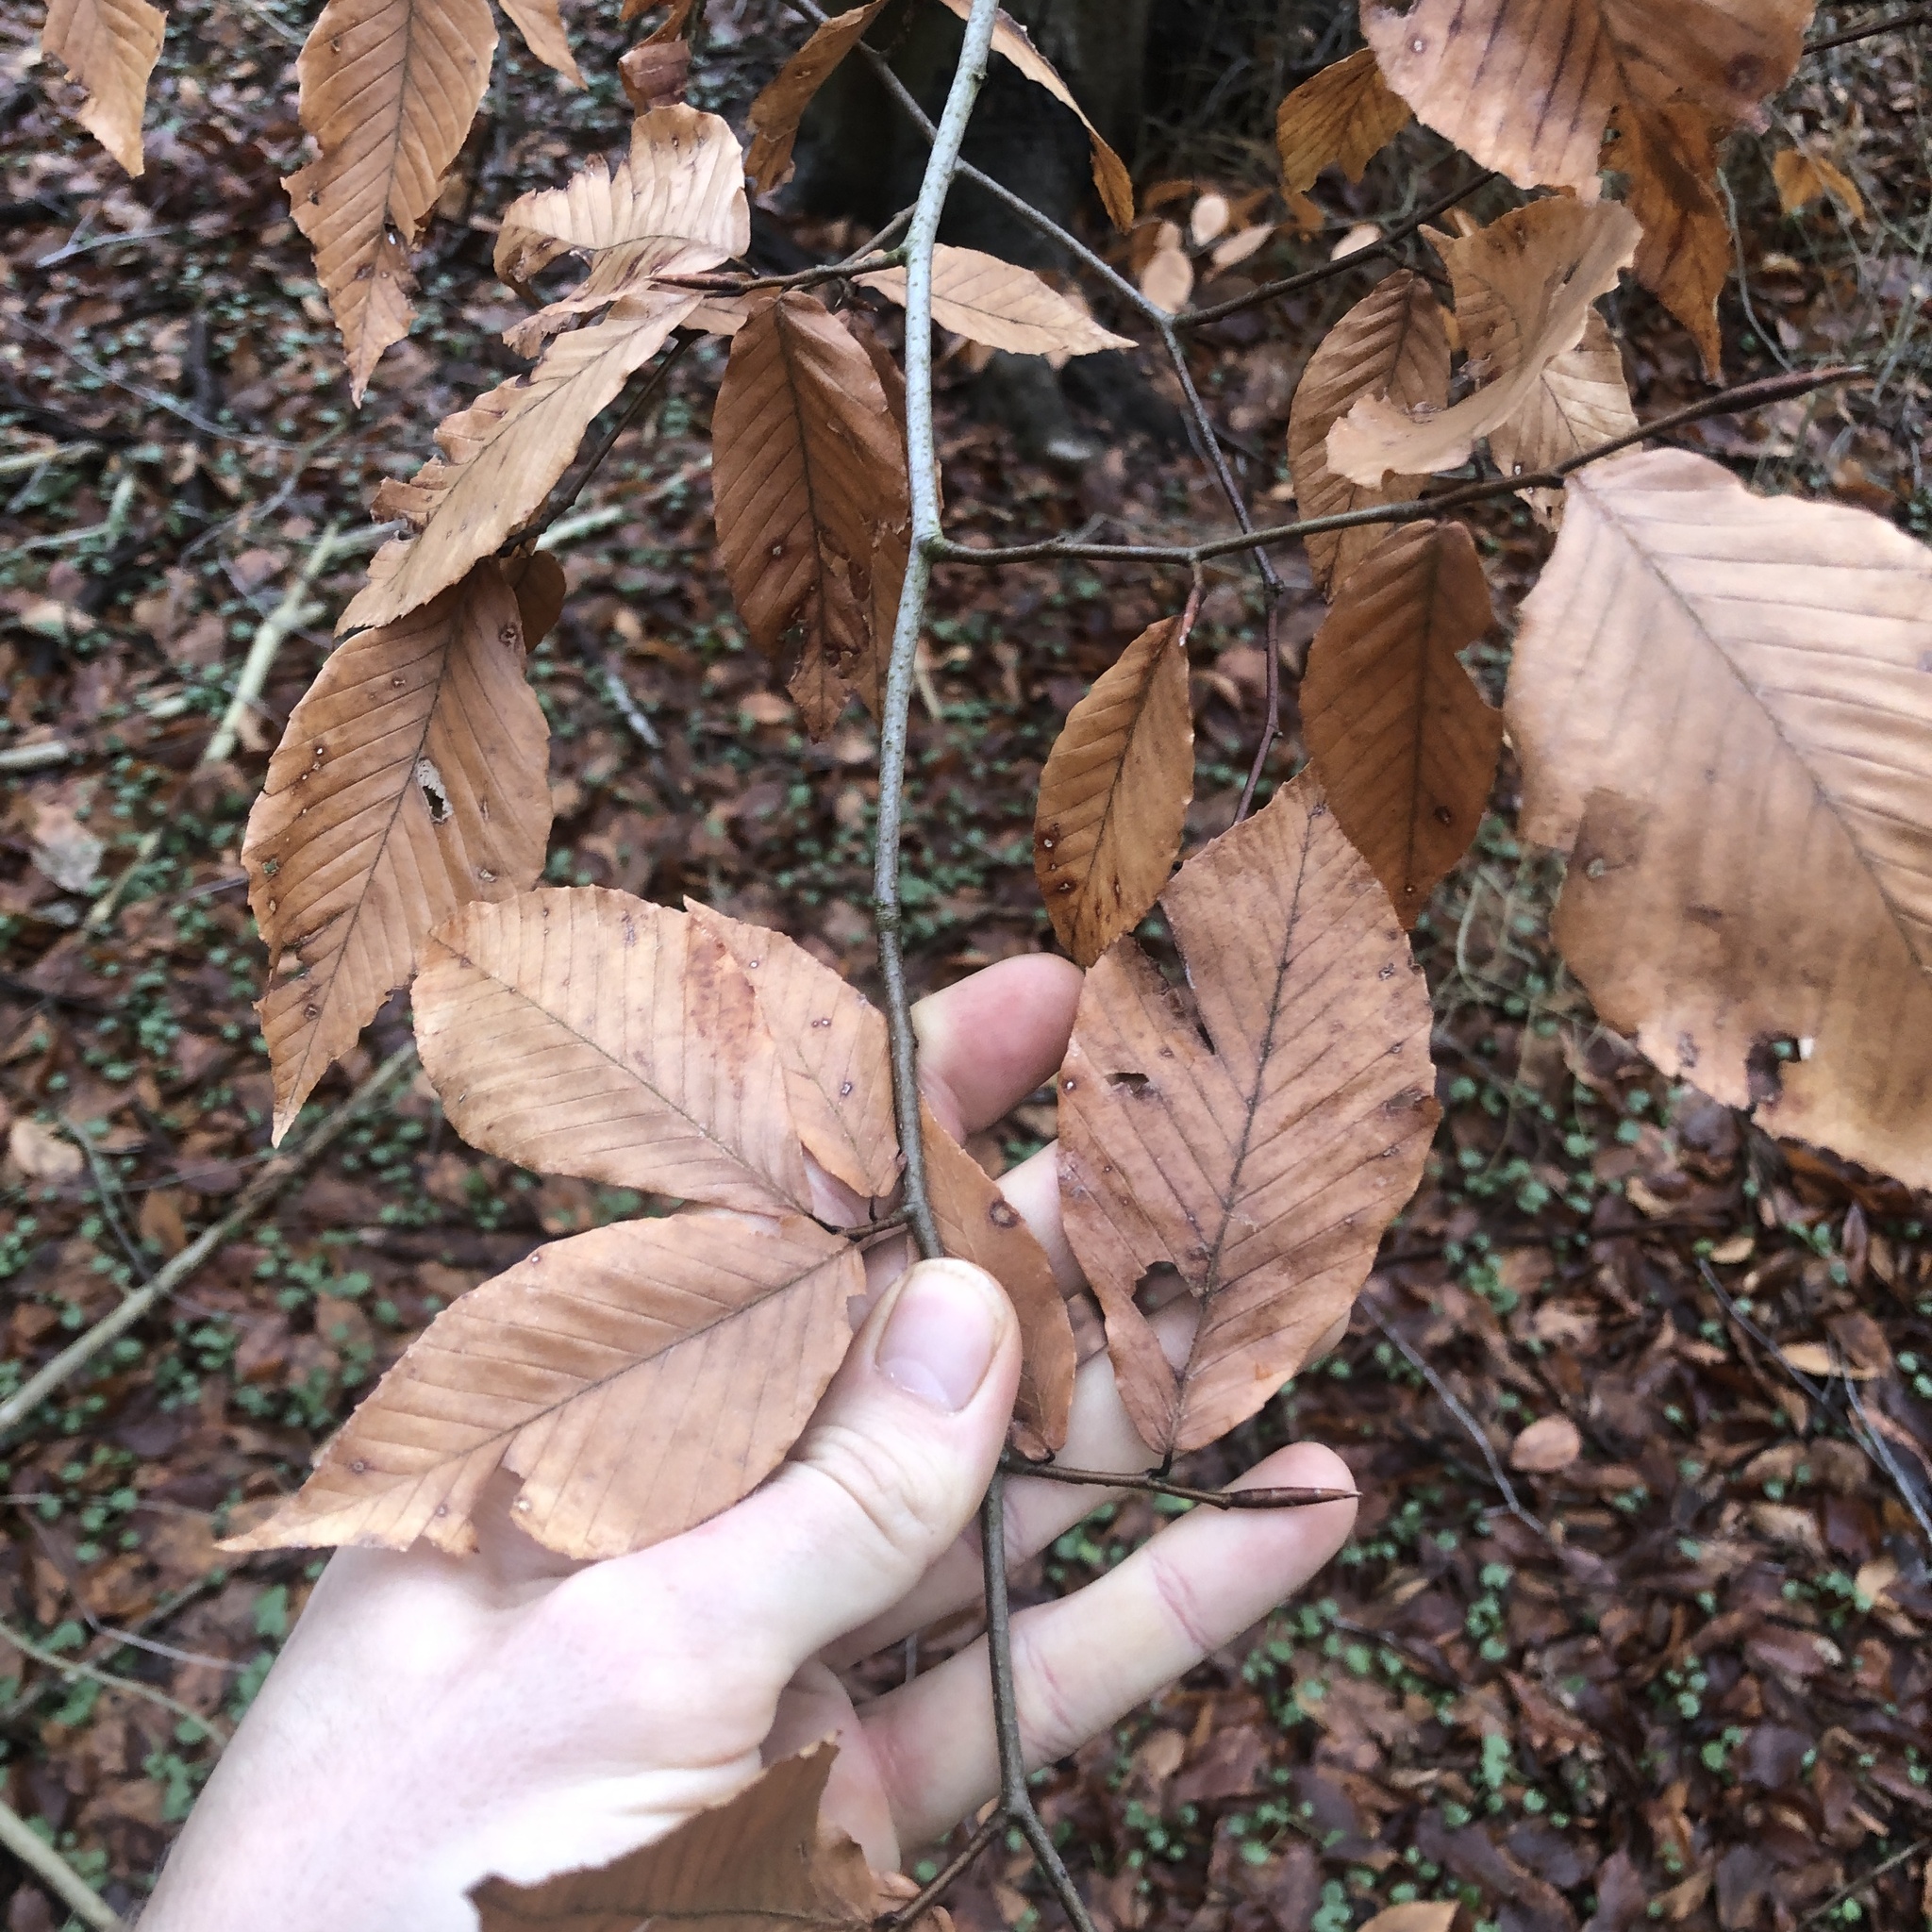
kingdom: Plantae
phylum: Tracheophyta
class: Magnoliopsida
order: Fagales
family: Fagaceae
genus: Fagus
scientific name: Fagus grandifolia
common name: American beech
